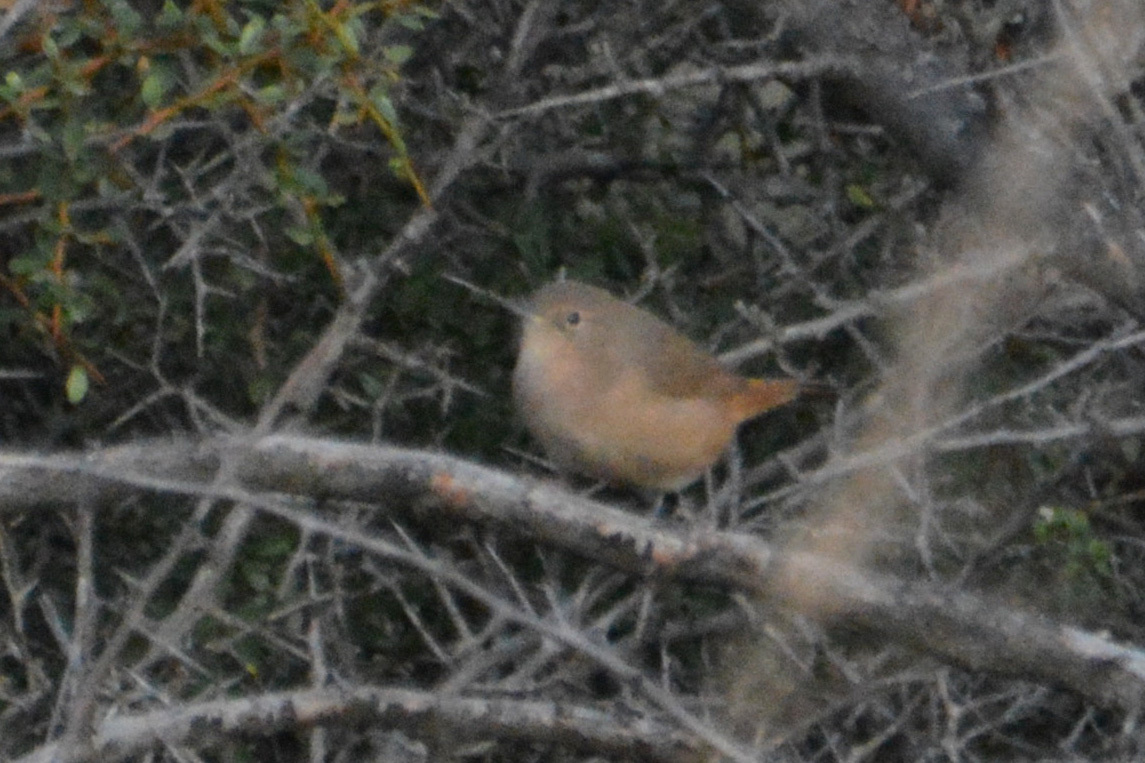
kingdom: Animalia
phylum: Chordata
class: Aves
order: Passeriformes
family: Troglodytidae
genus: Troglodytes
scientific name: Troglodytes aedon
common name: House wren
